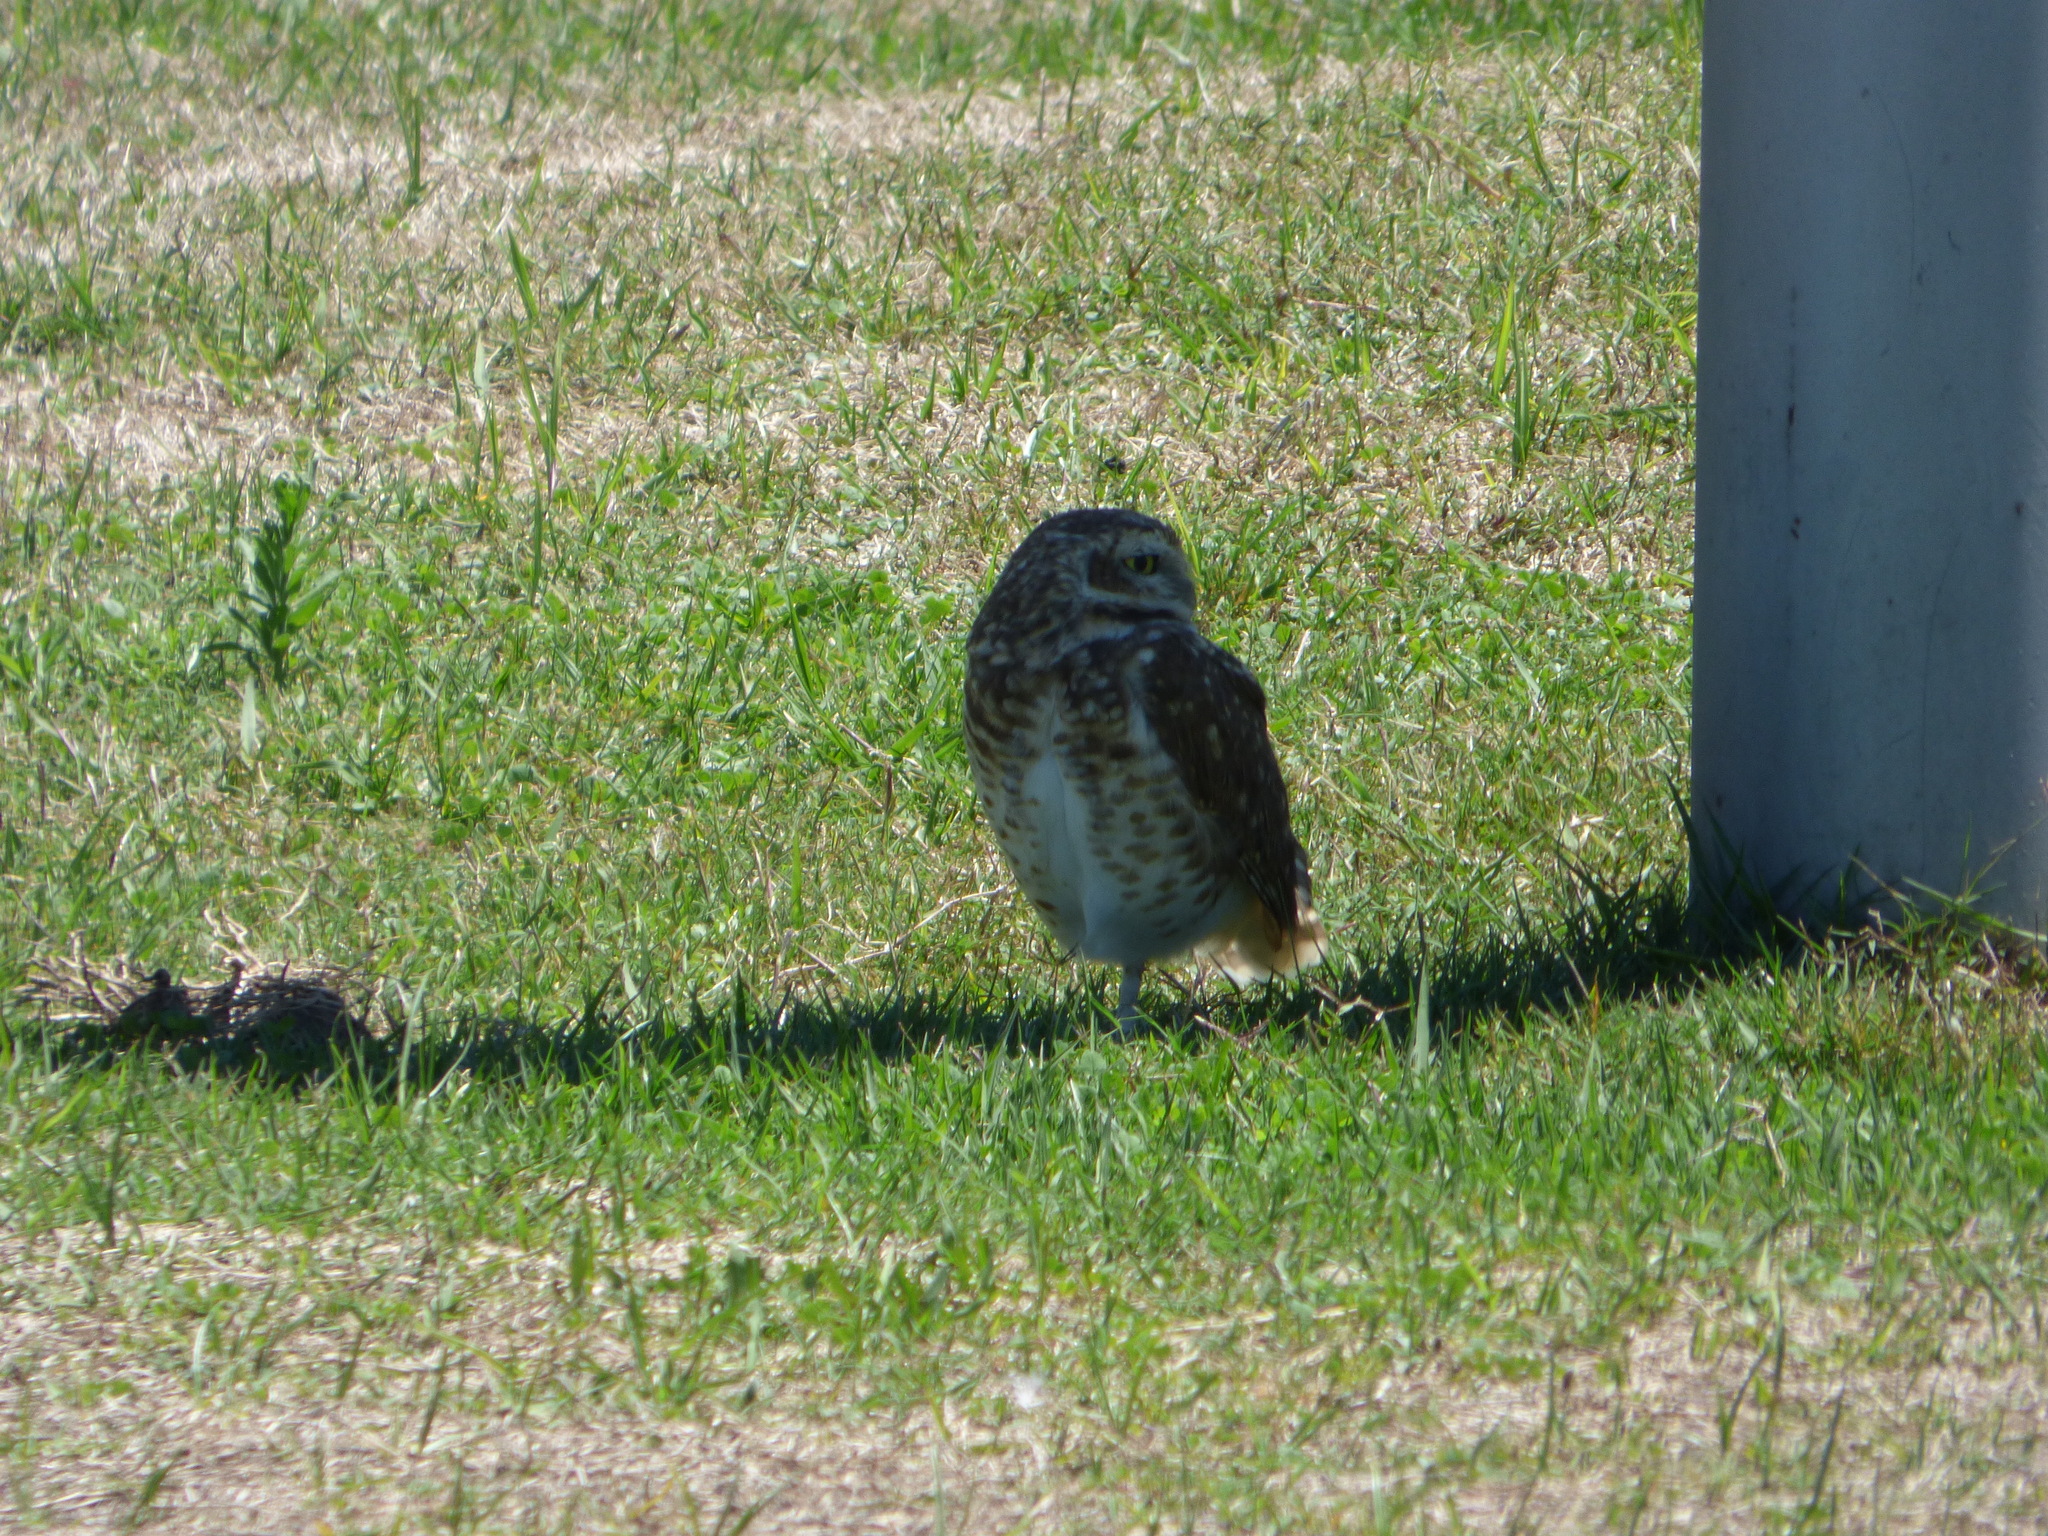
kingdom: Animalia
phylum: Chordata
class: Aves
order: Strigiformes
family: Strigidae
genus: Athene
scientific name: Athene cunicularia
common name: Burrowing owl
